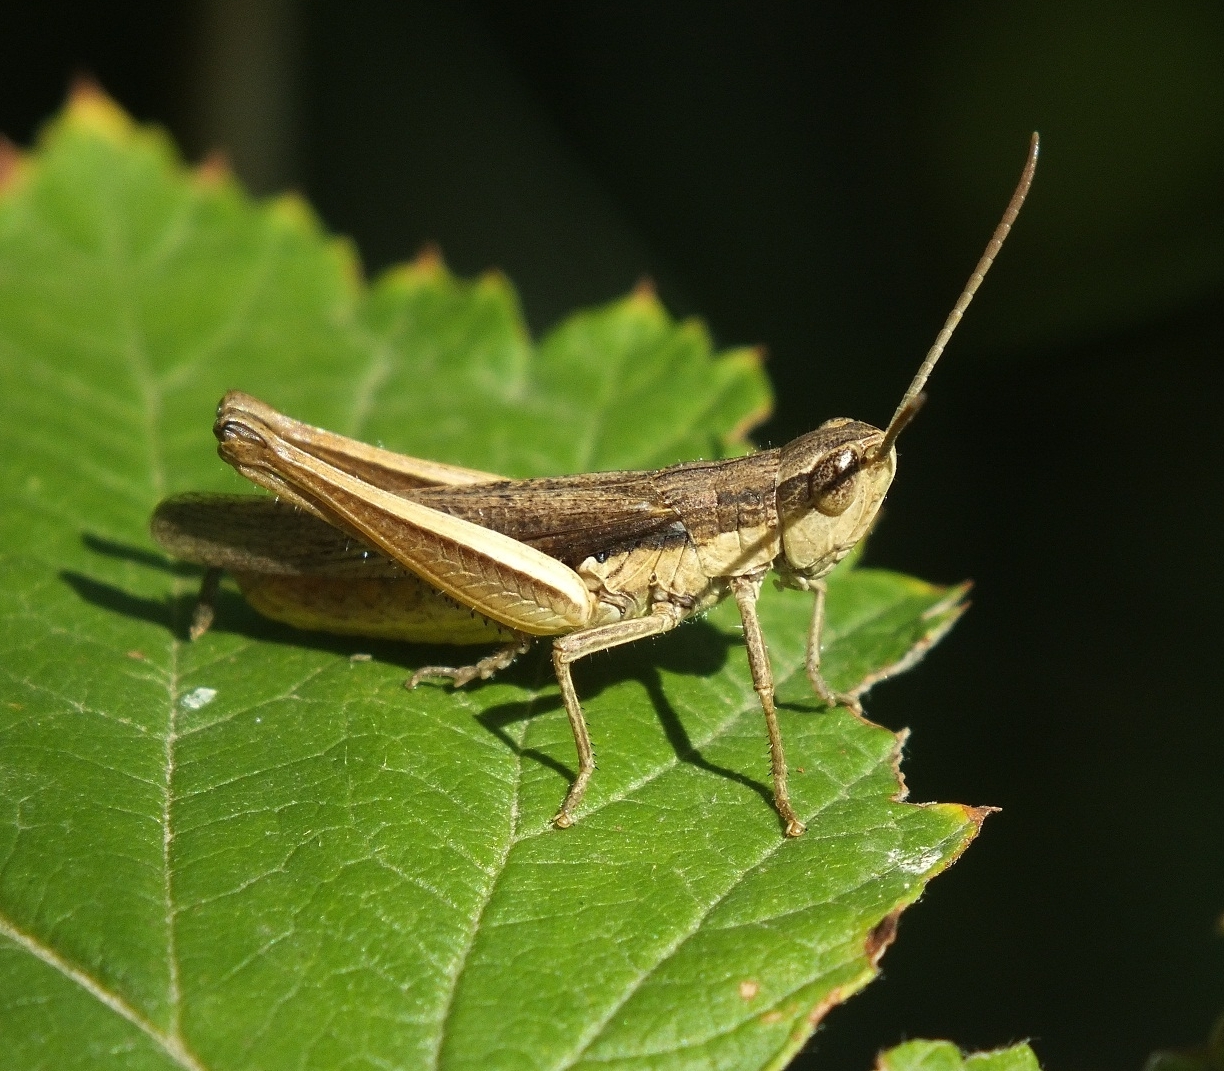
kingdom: Animalia
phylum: Arthropoda
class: Insecta
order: Orthoptera
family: Acrididae
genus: Chorthippus
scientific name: Chorthippus dichrous
